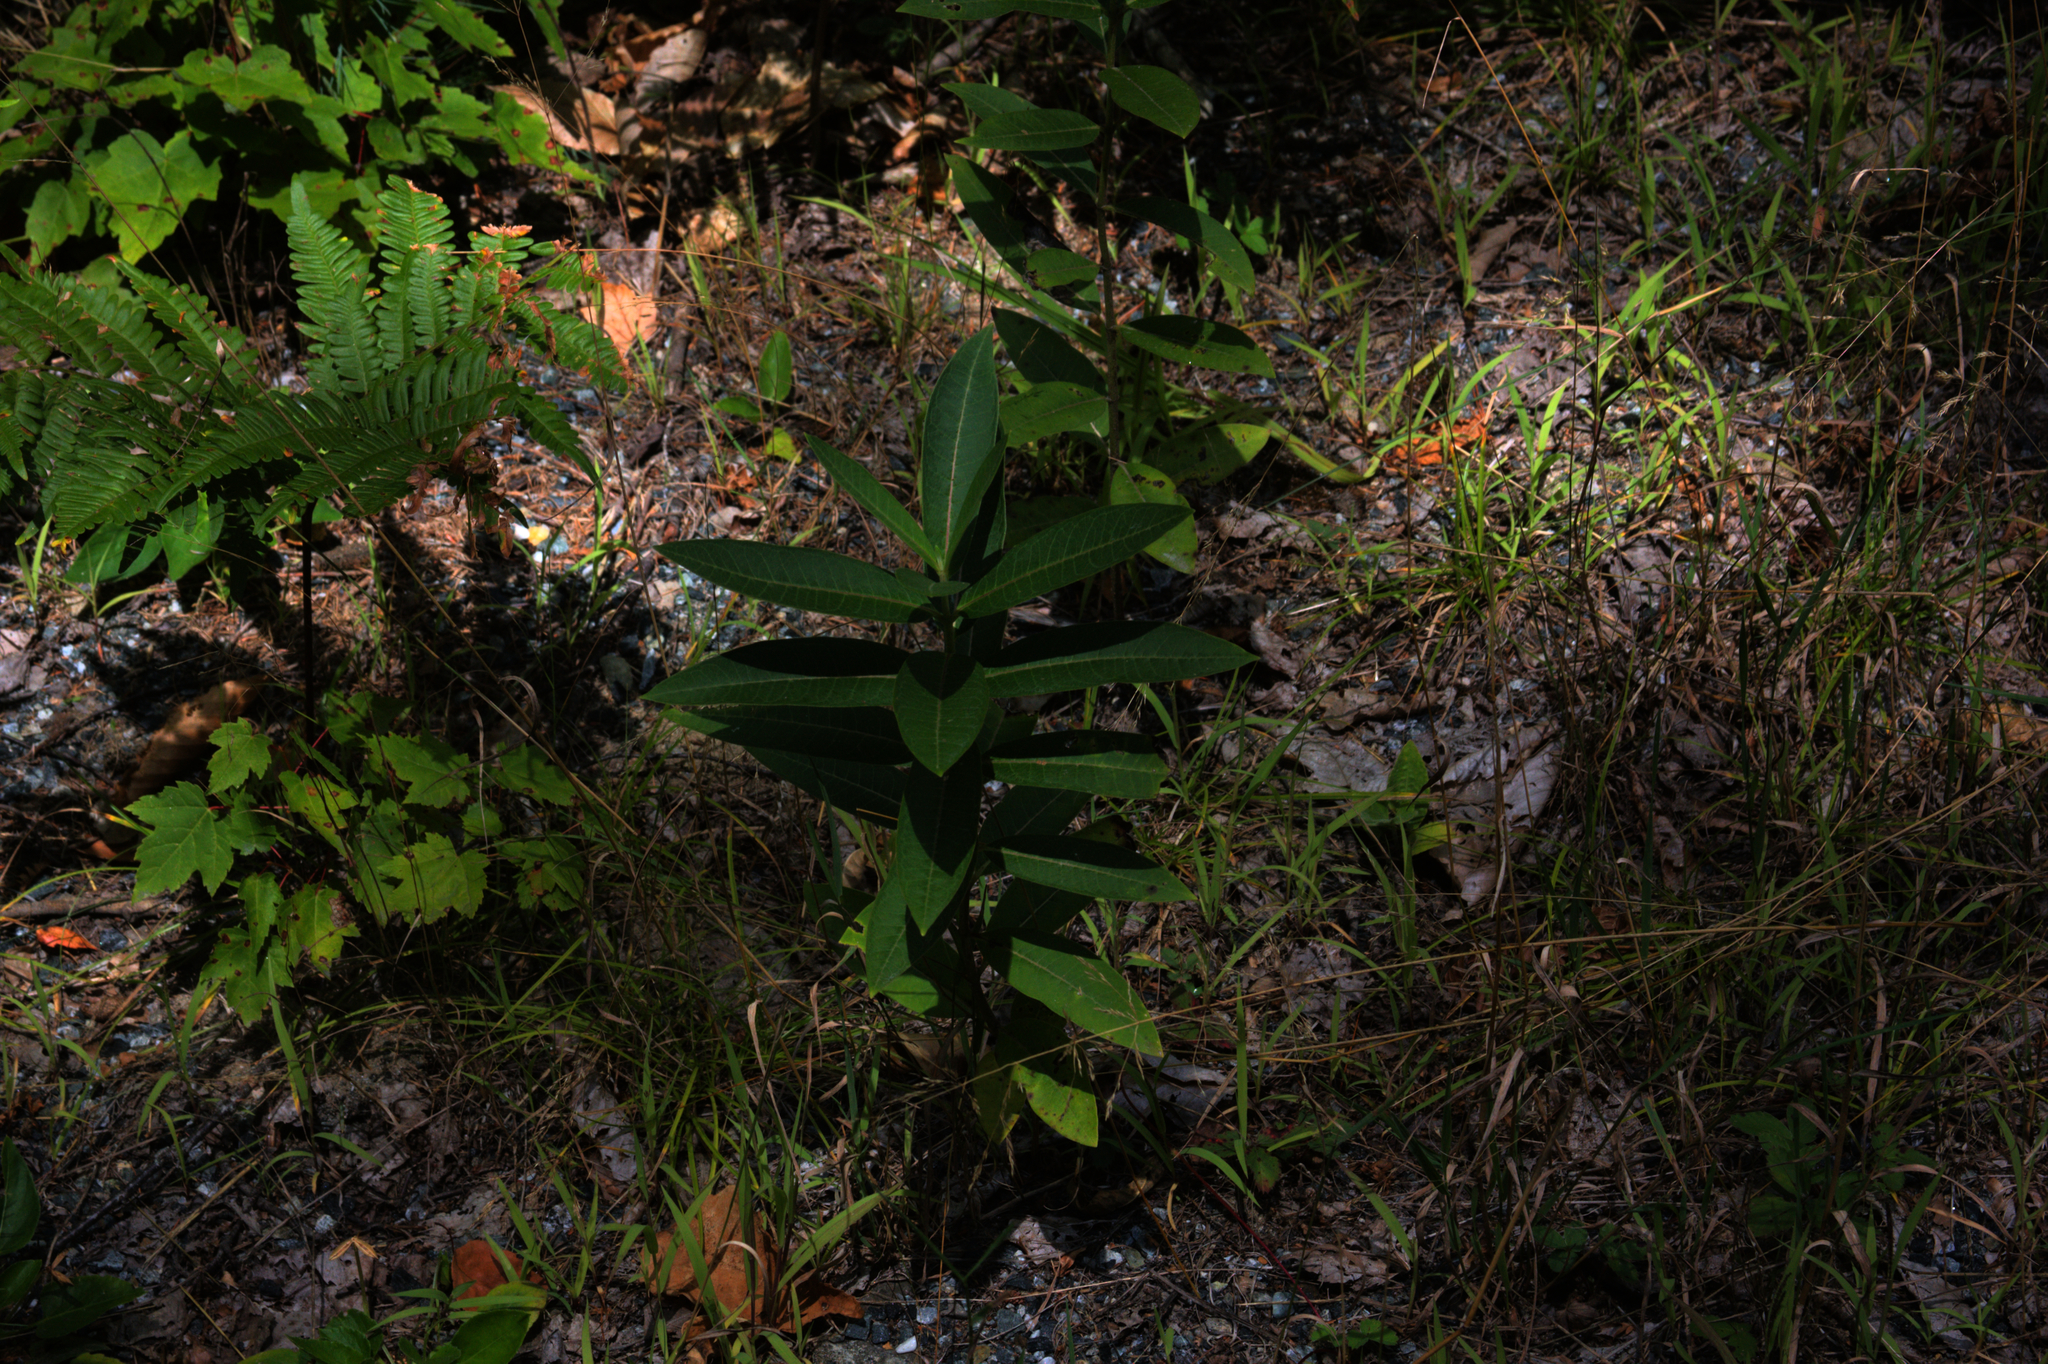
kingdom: Plantae
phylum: Tracheophyta
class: Magnoliopsida
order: Gentianales
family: Apocynaceae
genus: Asclepias
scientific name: Asclepias syriaca
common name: Common milkweed
